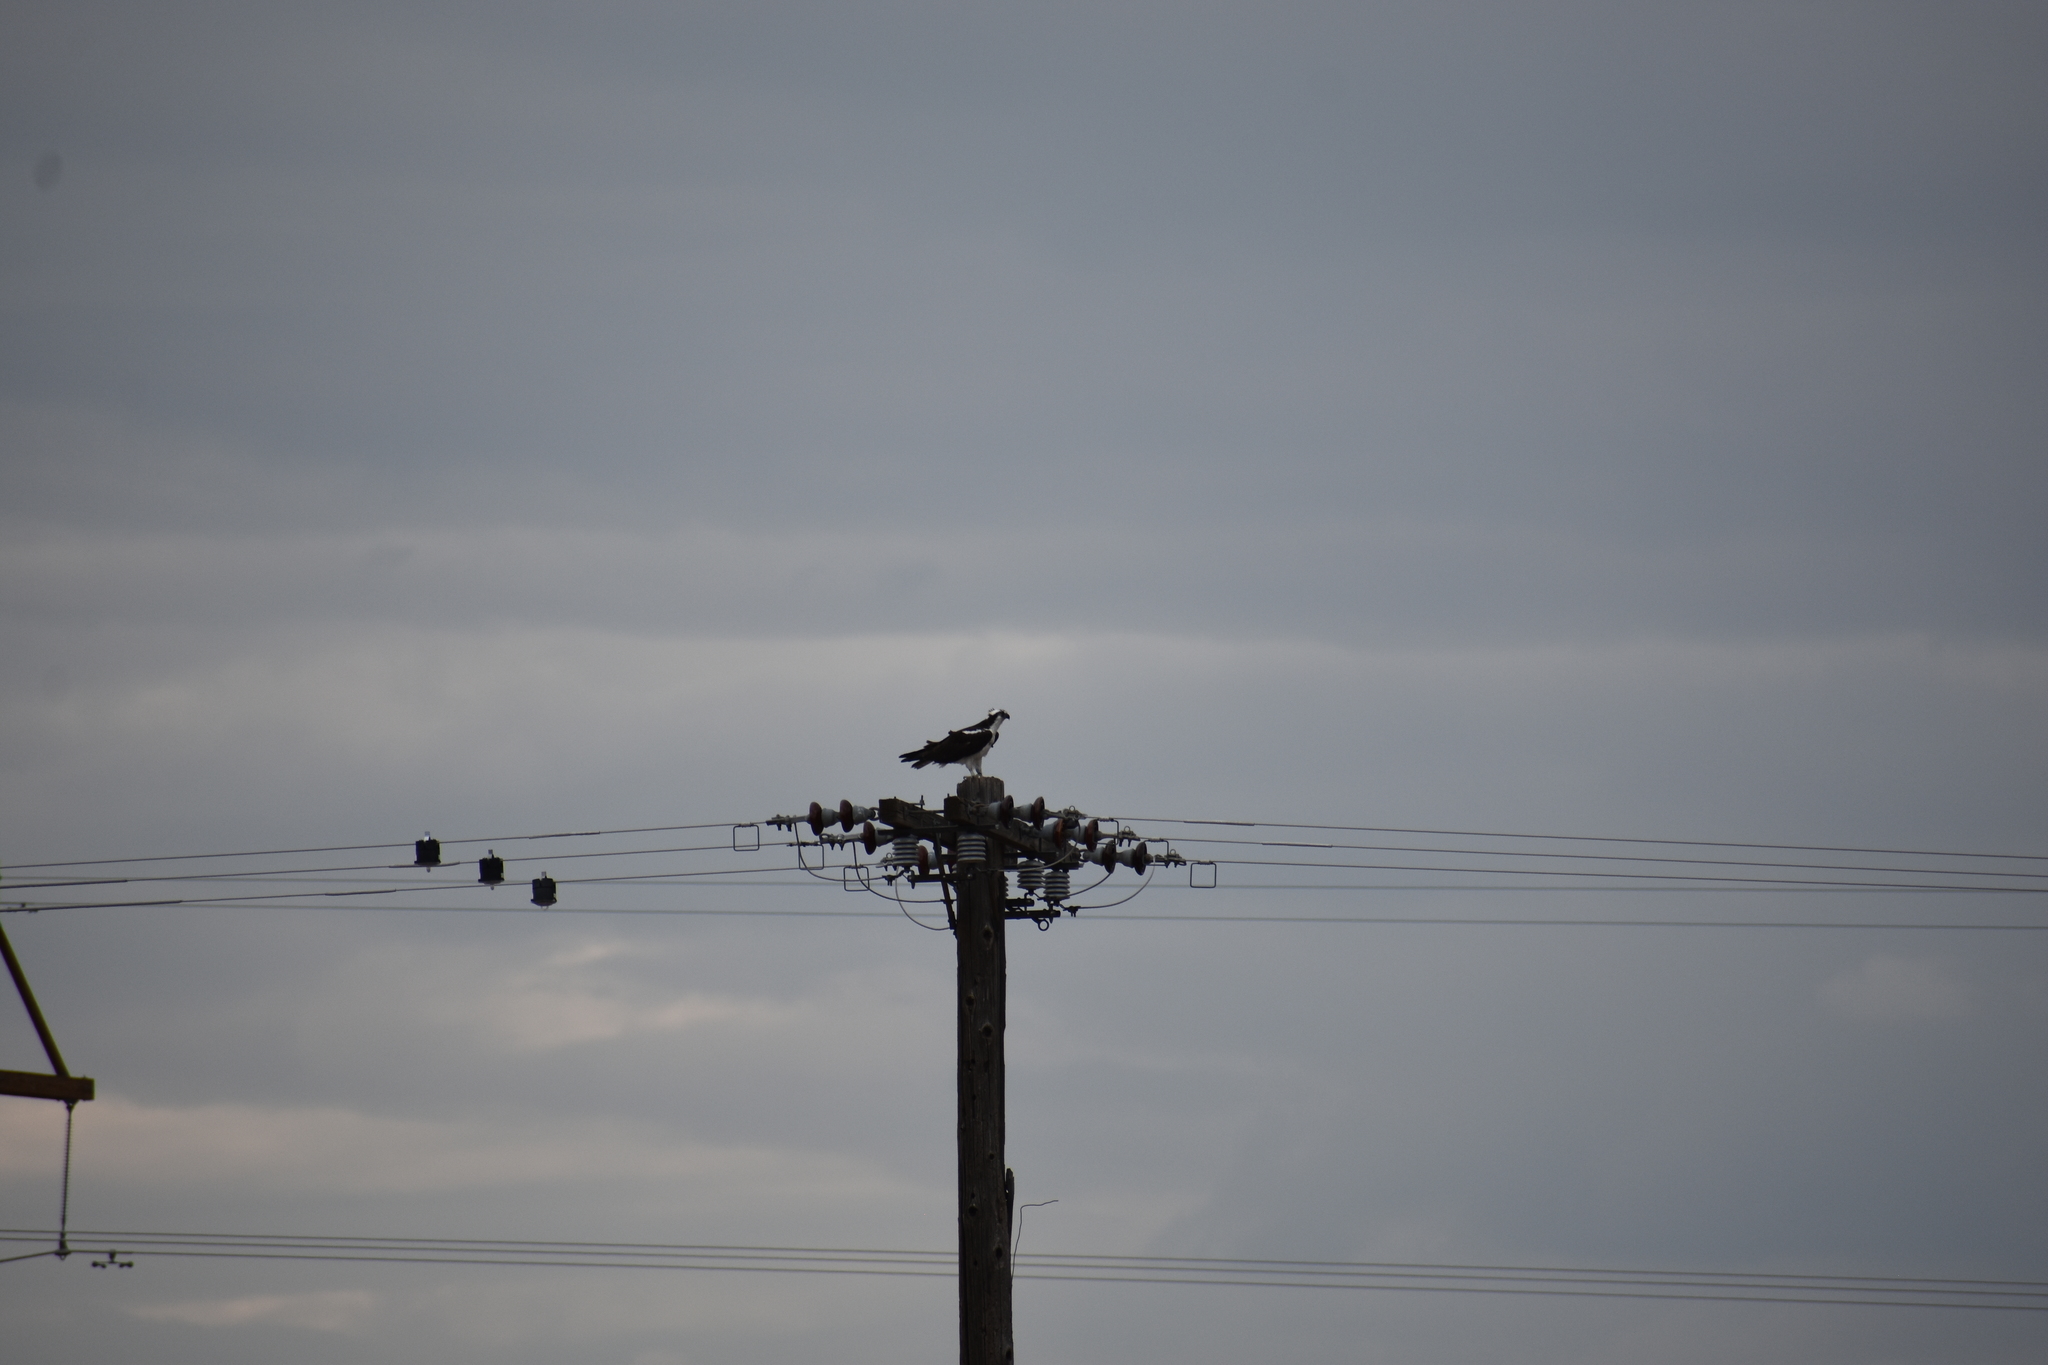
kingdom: Animalia
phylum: Chordata
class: Aves
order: Accipitriformes
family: Pandionidae
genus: Pandion
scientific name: Pandion haliaetus
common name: Osprey
